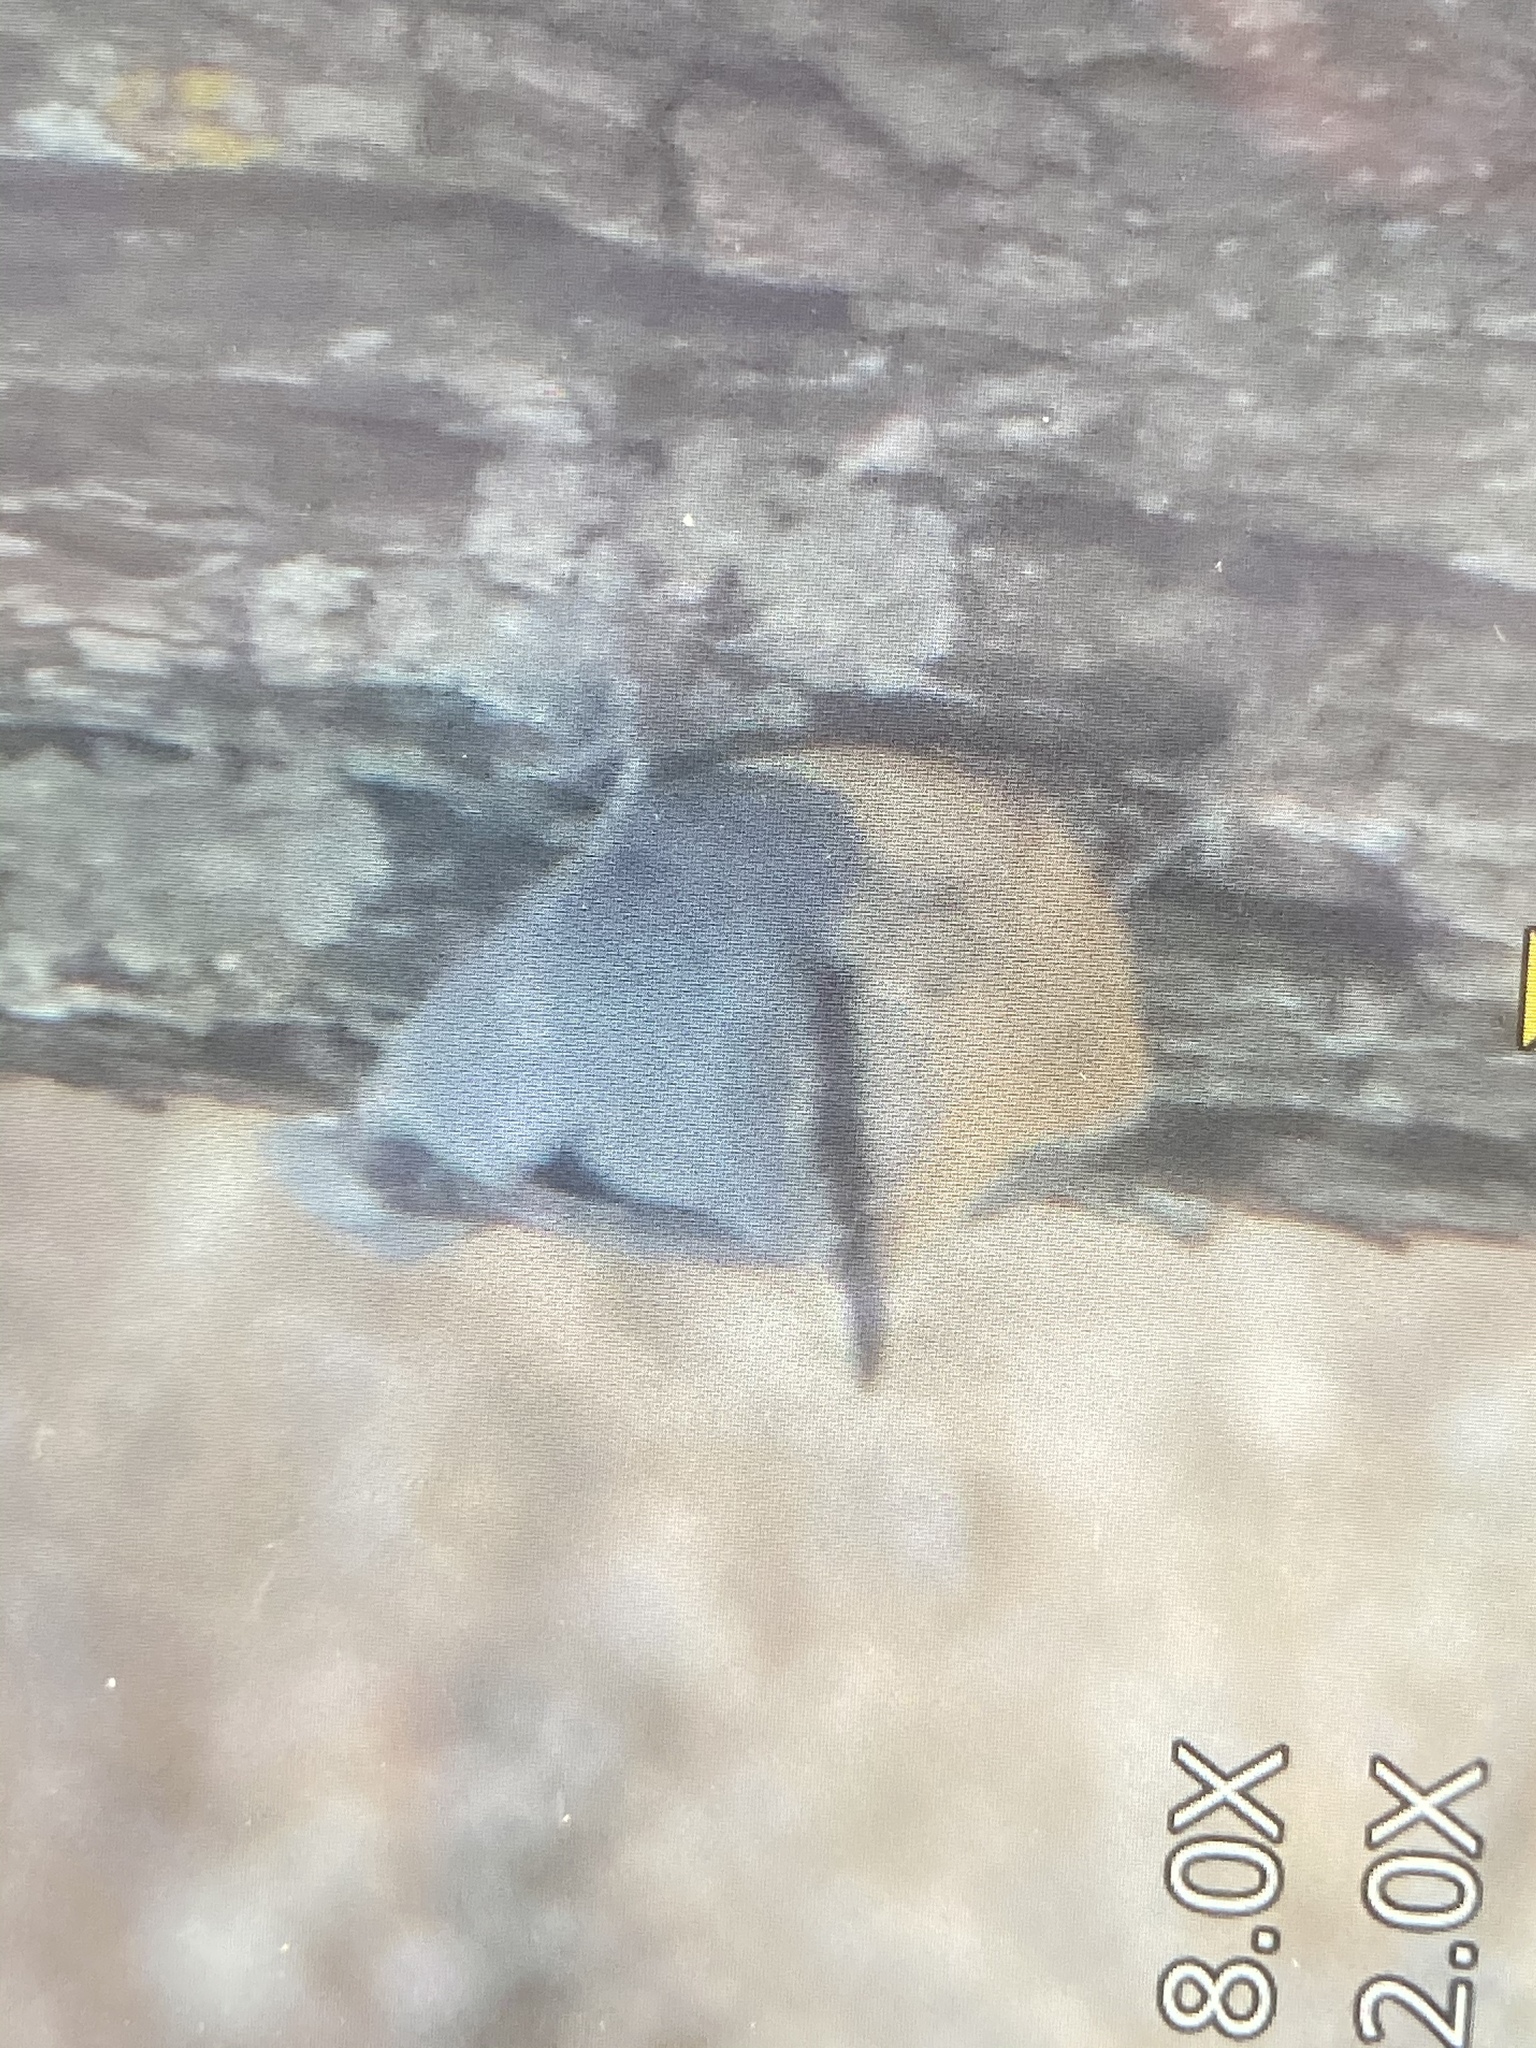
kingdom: Animalia
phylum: Chordata
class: Aves
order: Passeriformes
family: Sittidae
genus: Sitta
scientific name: Sitta europaea
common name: Eurasian nuthatch
